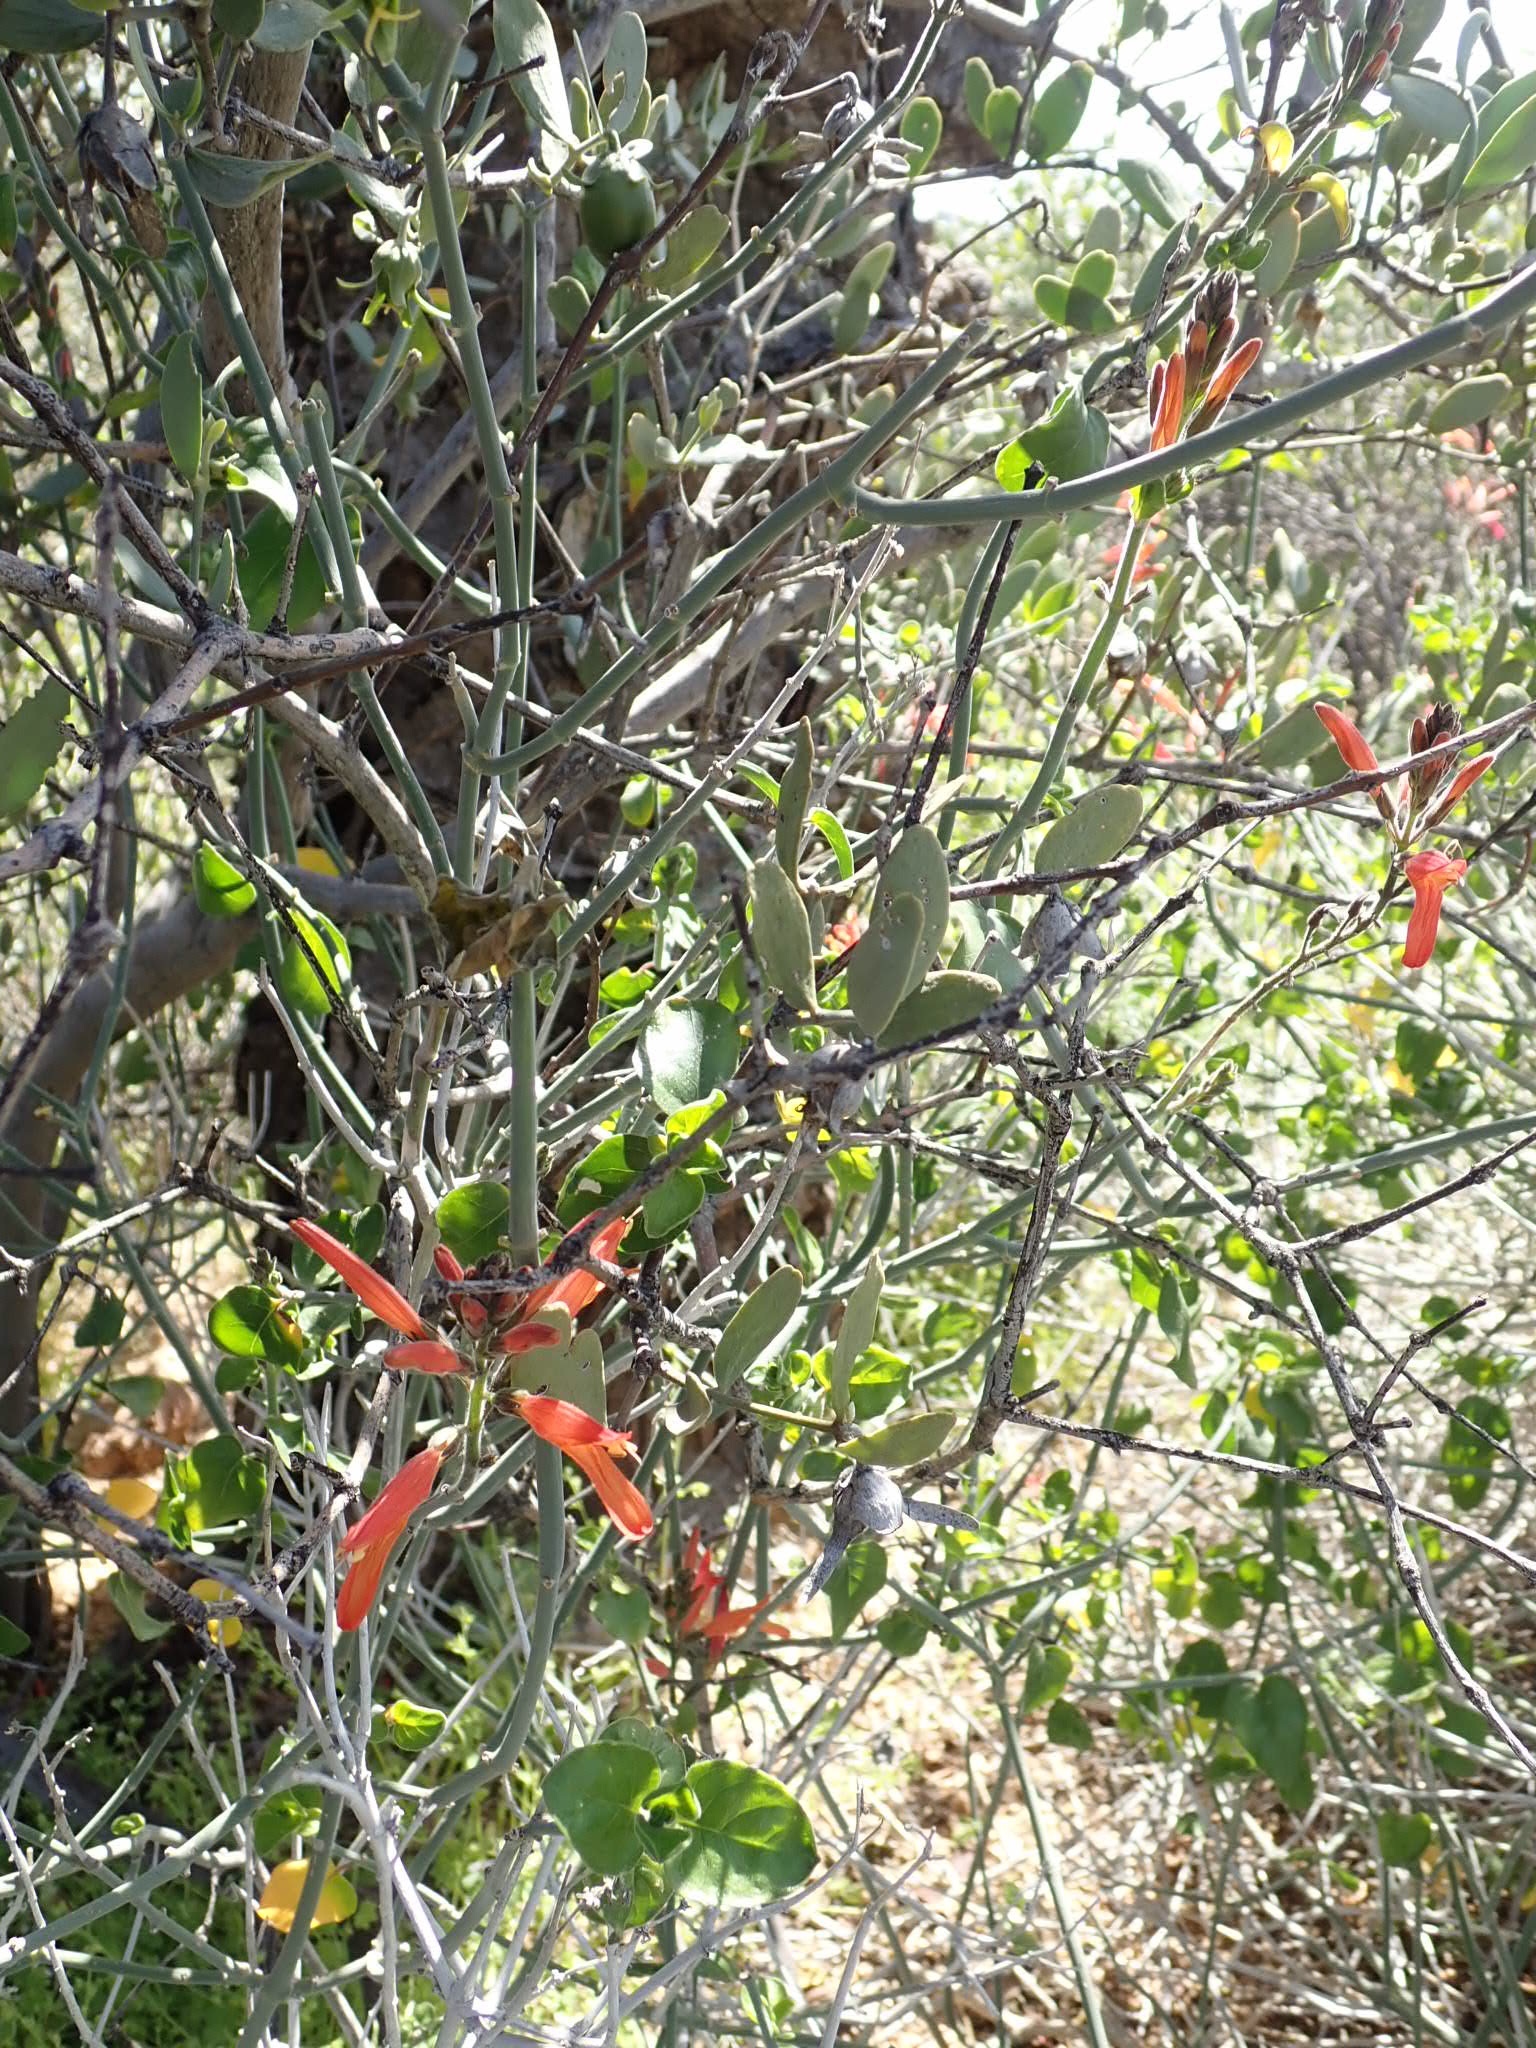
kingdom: Plantae
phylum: Tracheophyta
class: Magnoliopsida
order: Lamiales
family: Acanthaceae
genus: Justicia
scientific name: Justicia californica
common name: Chuparosa-honeysuckle
